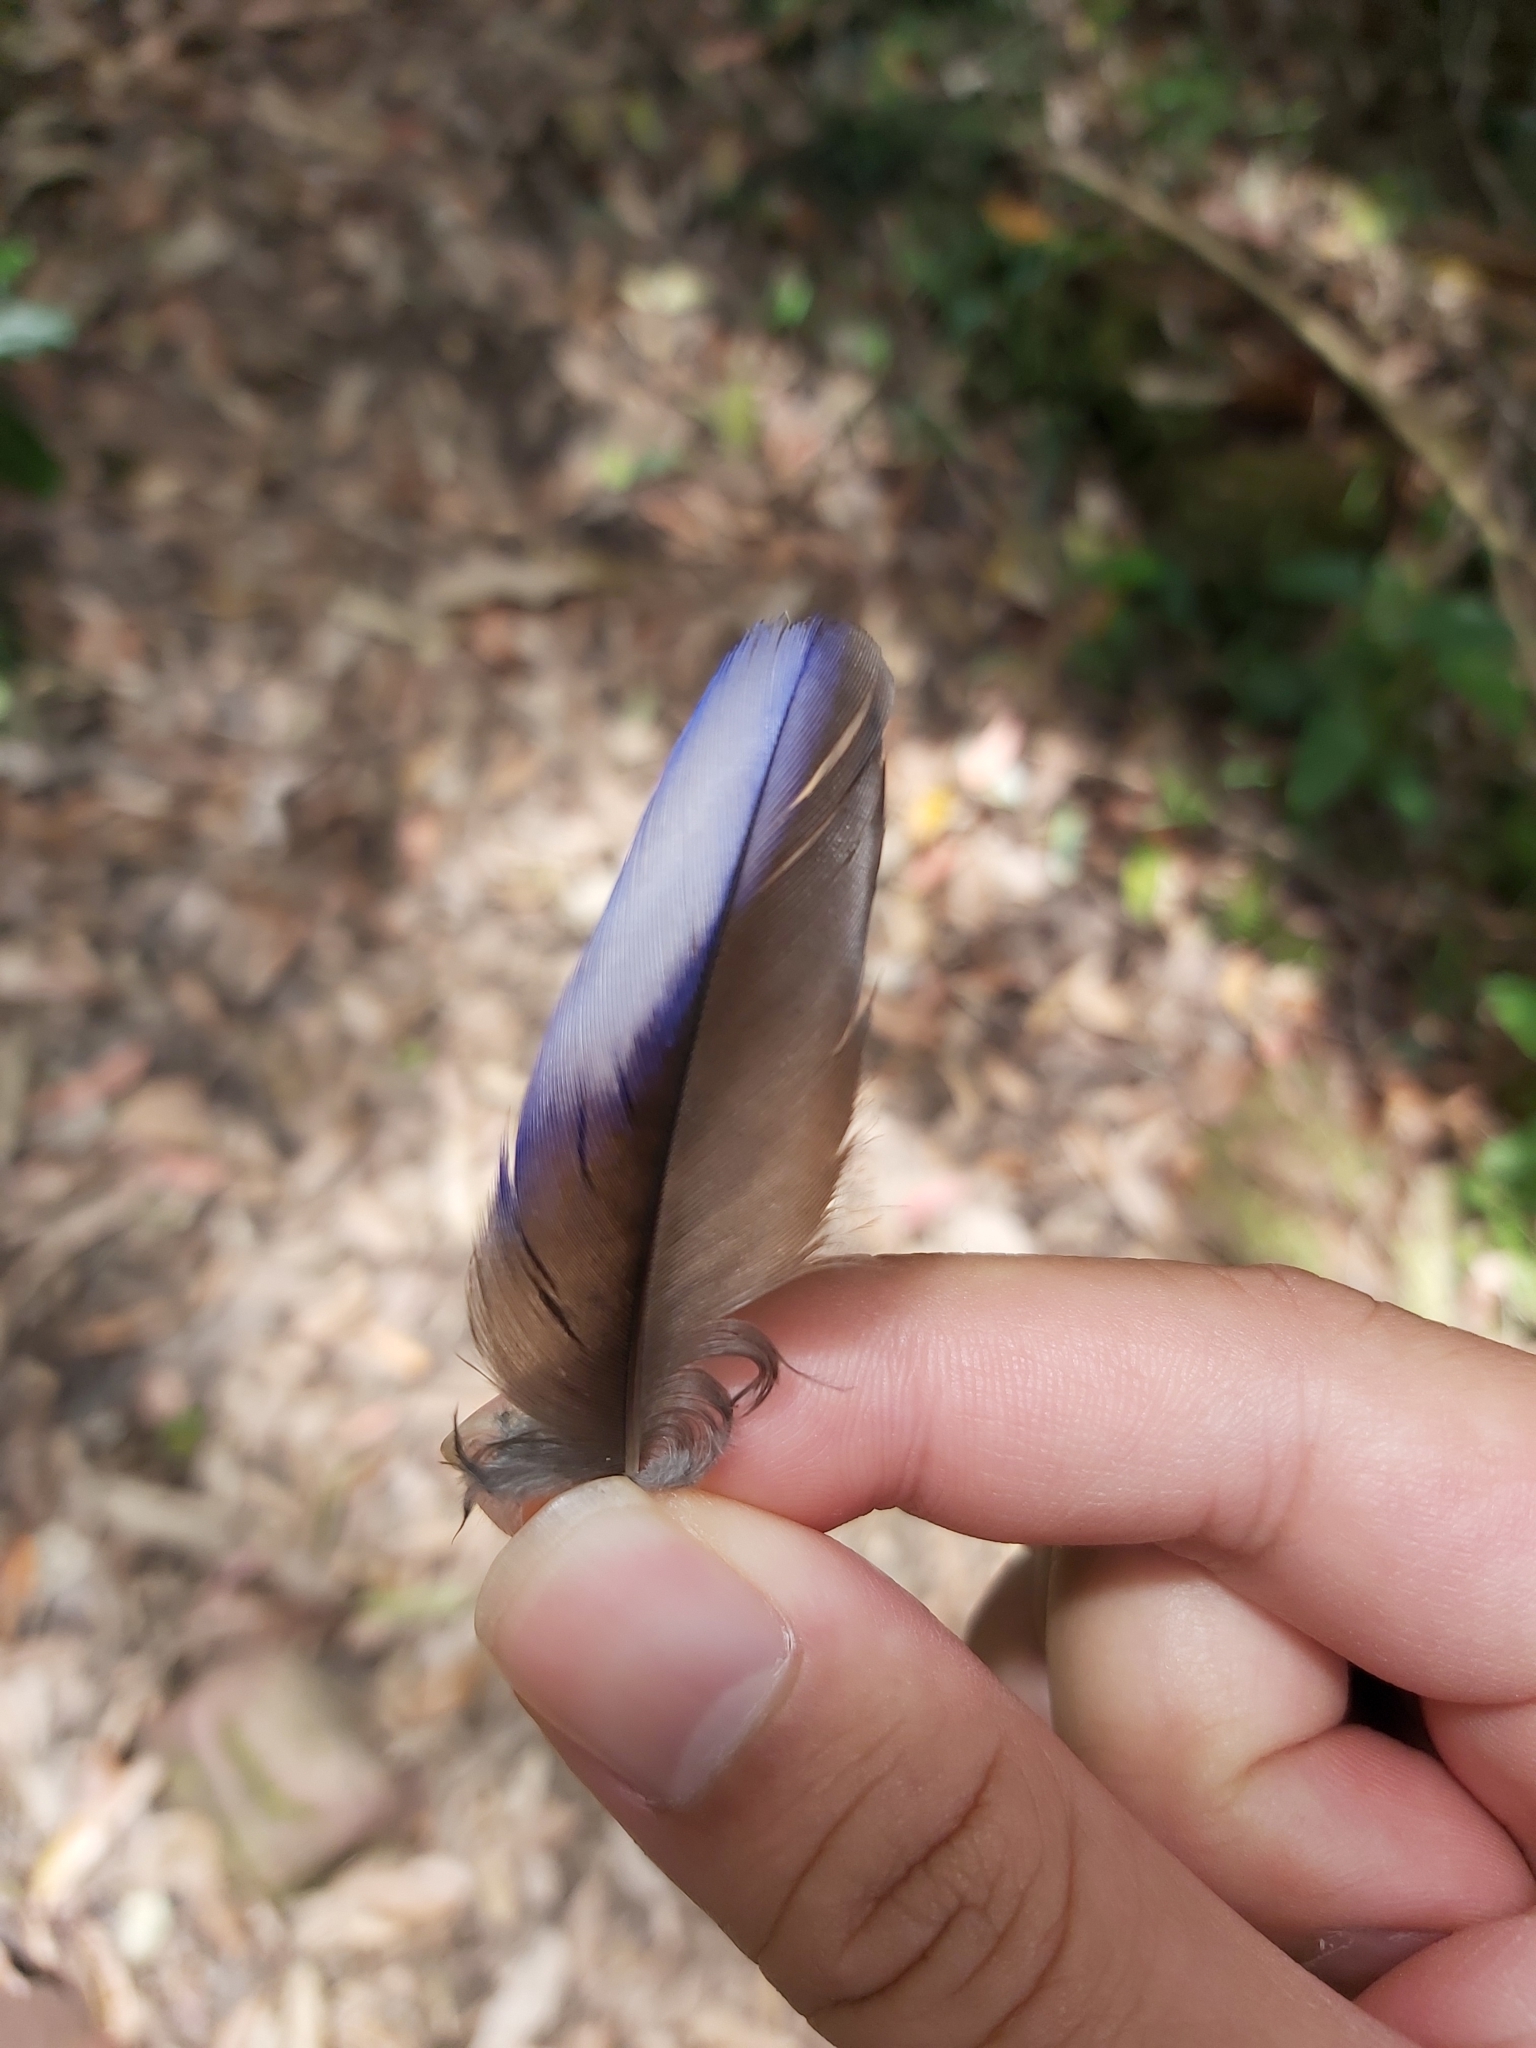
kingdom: Animalia
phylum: Chordata
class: Aves
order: Psittaciformes
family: Psittacidae
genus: Platycercus
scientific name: Platycercus elegans
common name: Crimson rosella
